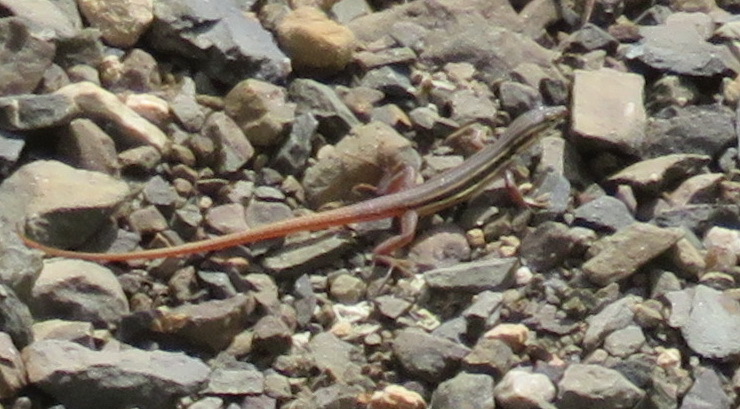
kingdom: Animalia
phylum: Chordata
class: Squamata
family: Lacertidae
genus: Pedioplanis
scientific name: Pedioplanis namaquensis
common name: Namaqua sand lizard
